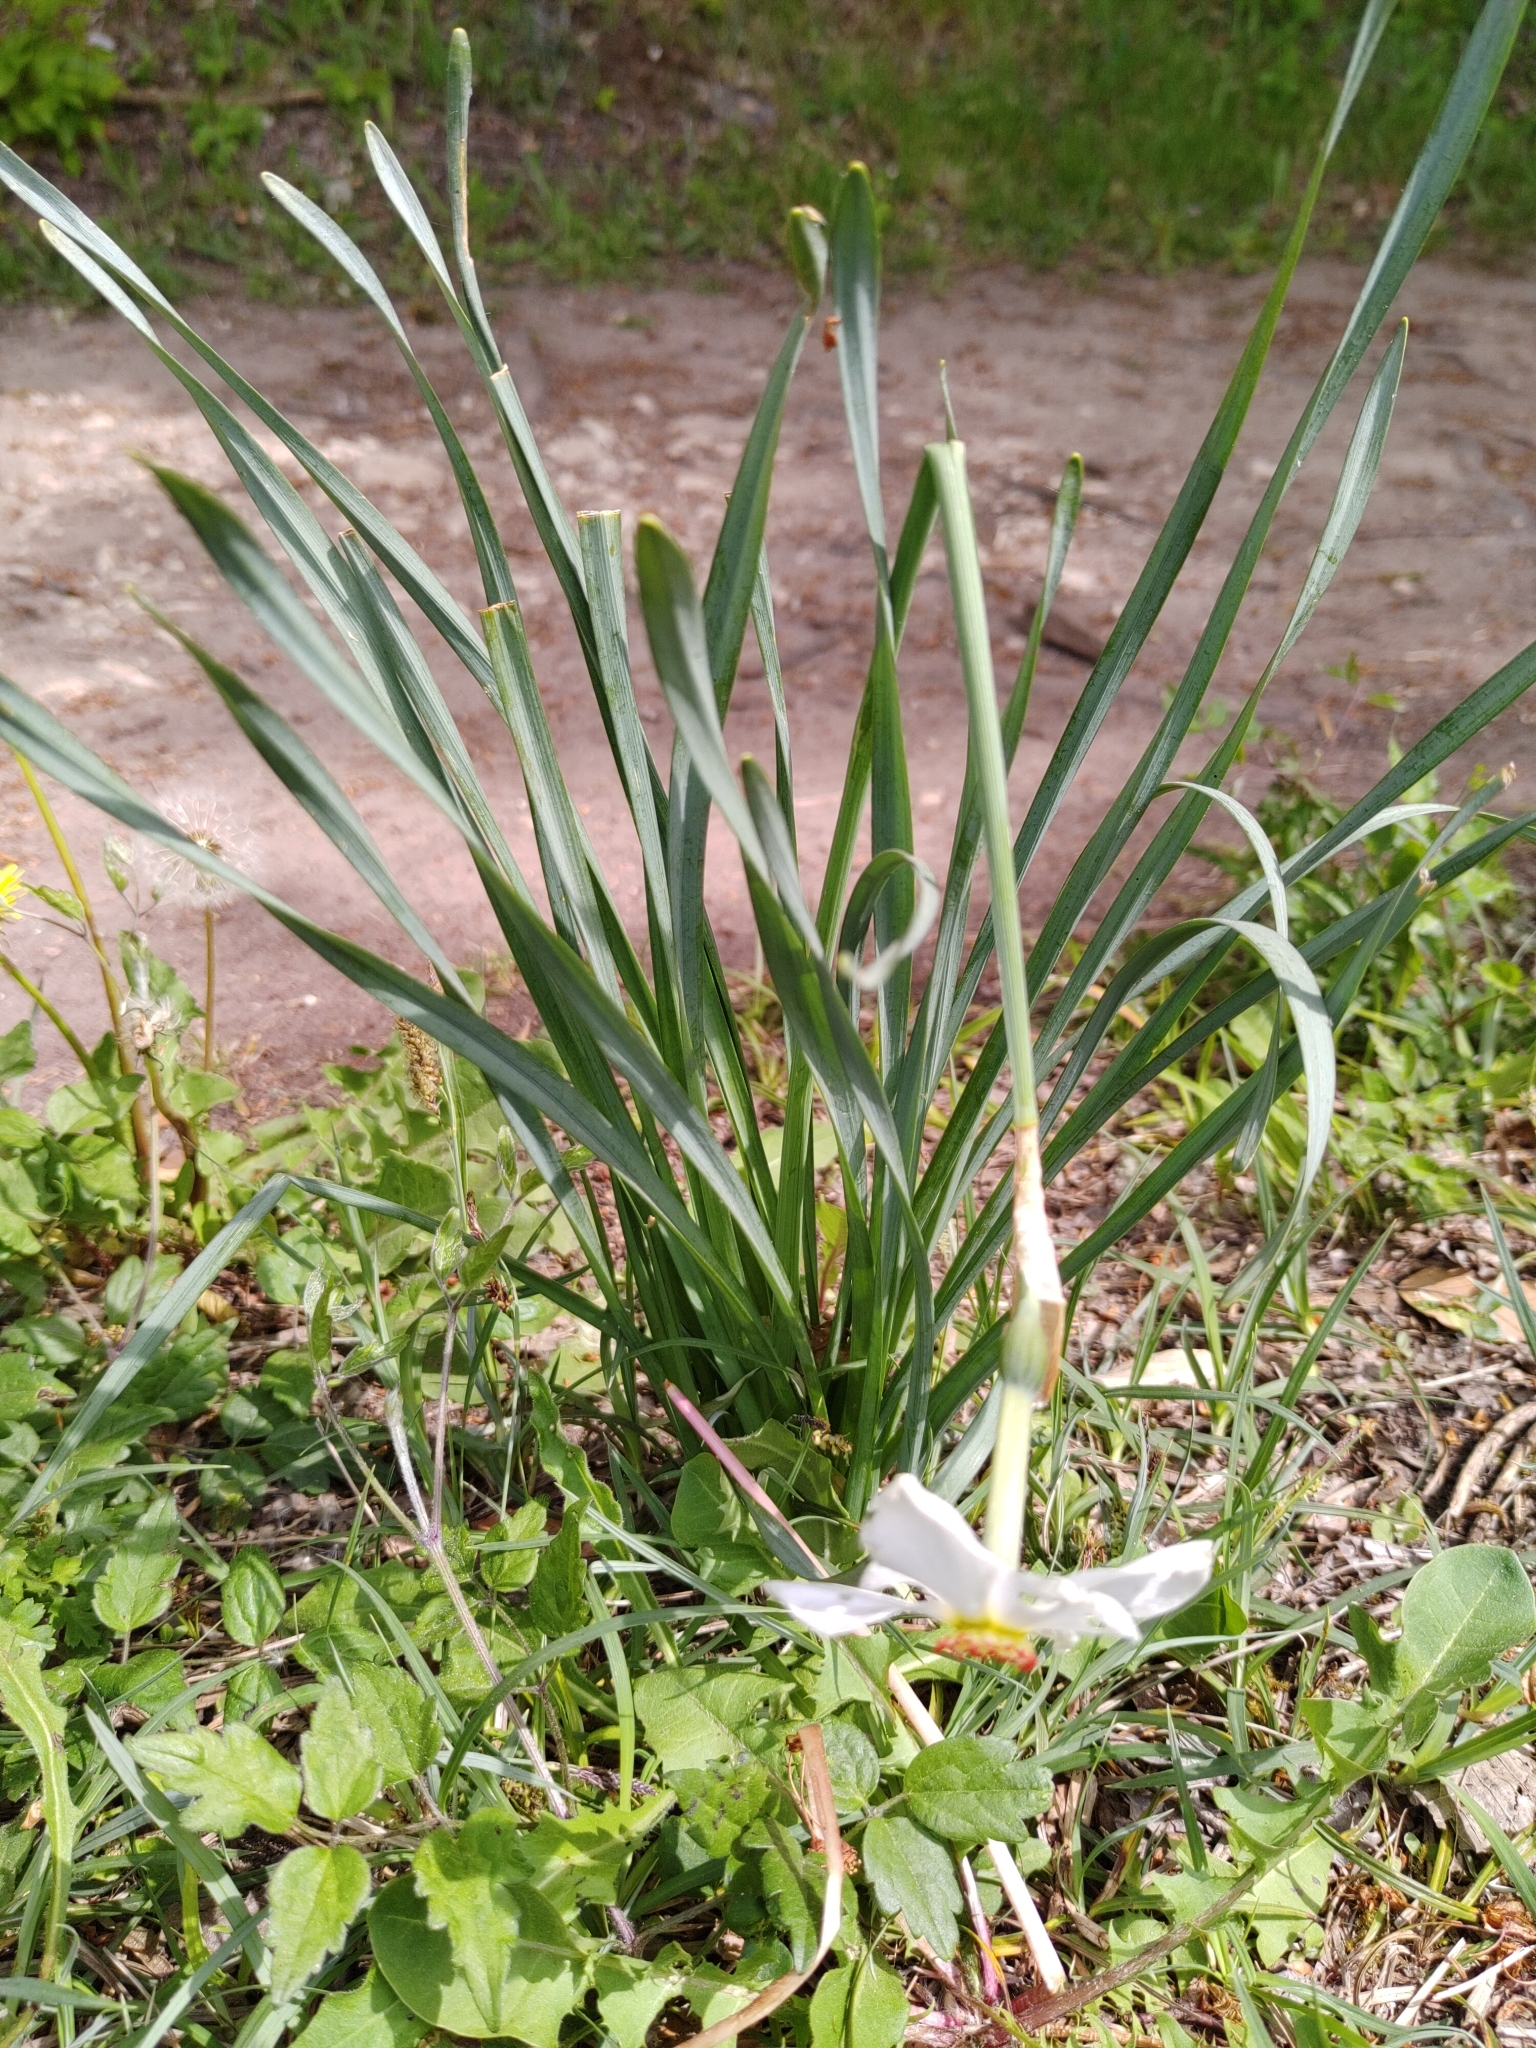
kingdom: Plantae
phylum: Tracheophyta
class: Liliopsida
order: Asparagales
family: Amaryllidaceae
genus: Narcissus
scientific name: Narcissus poeticus
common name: Pheasant's-eye daffodil
